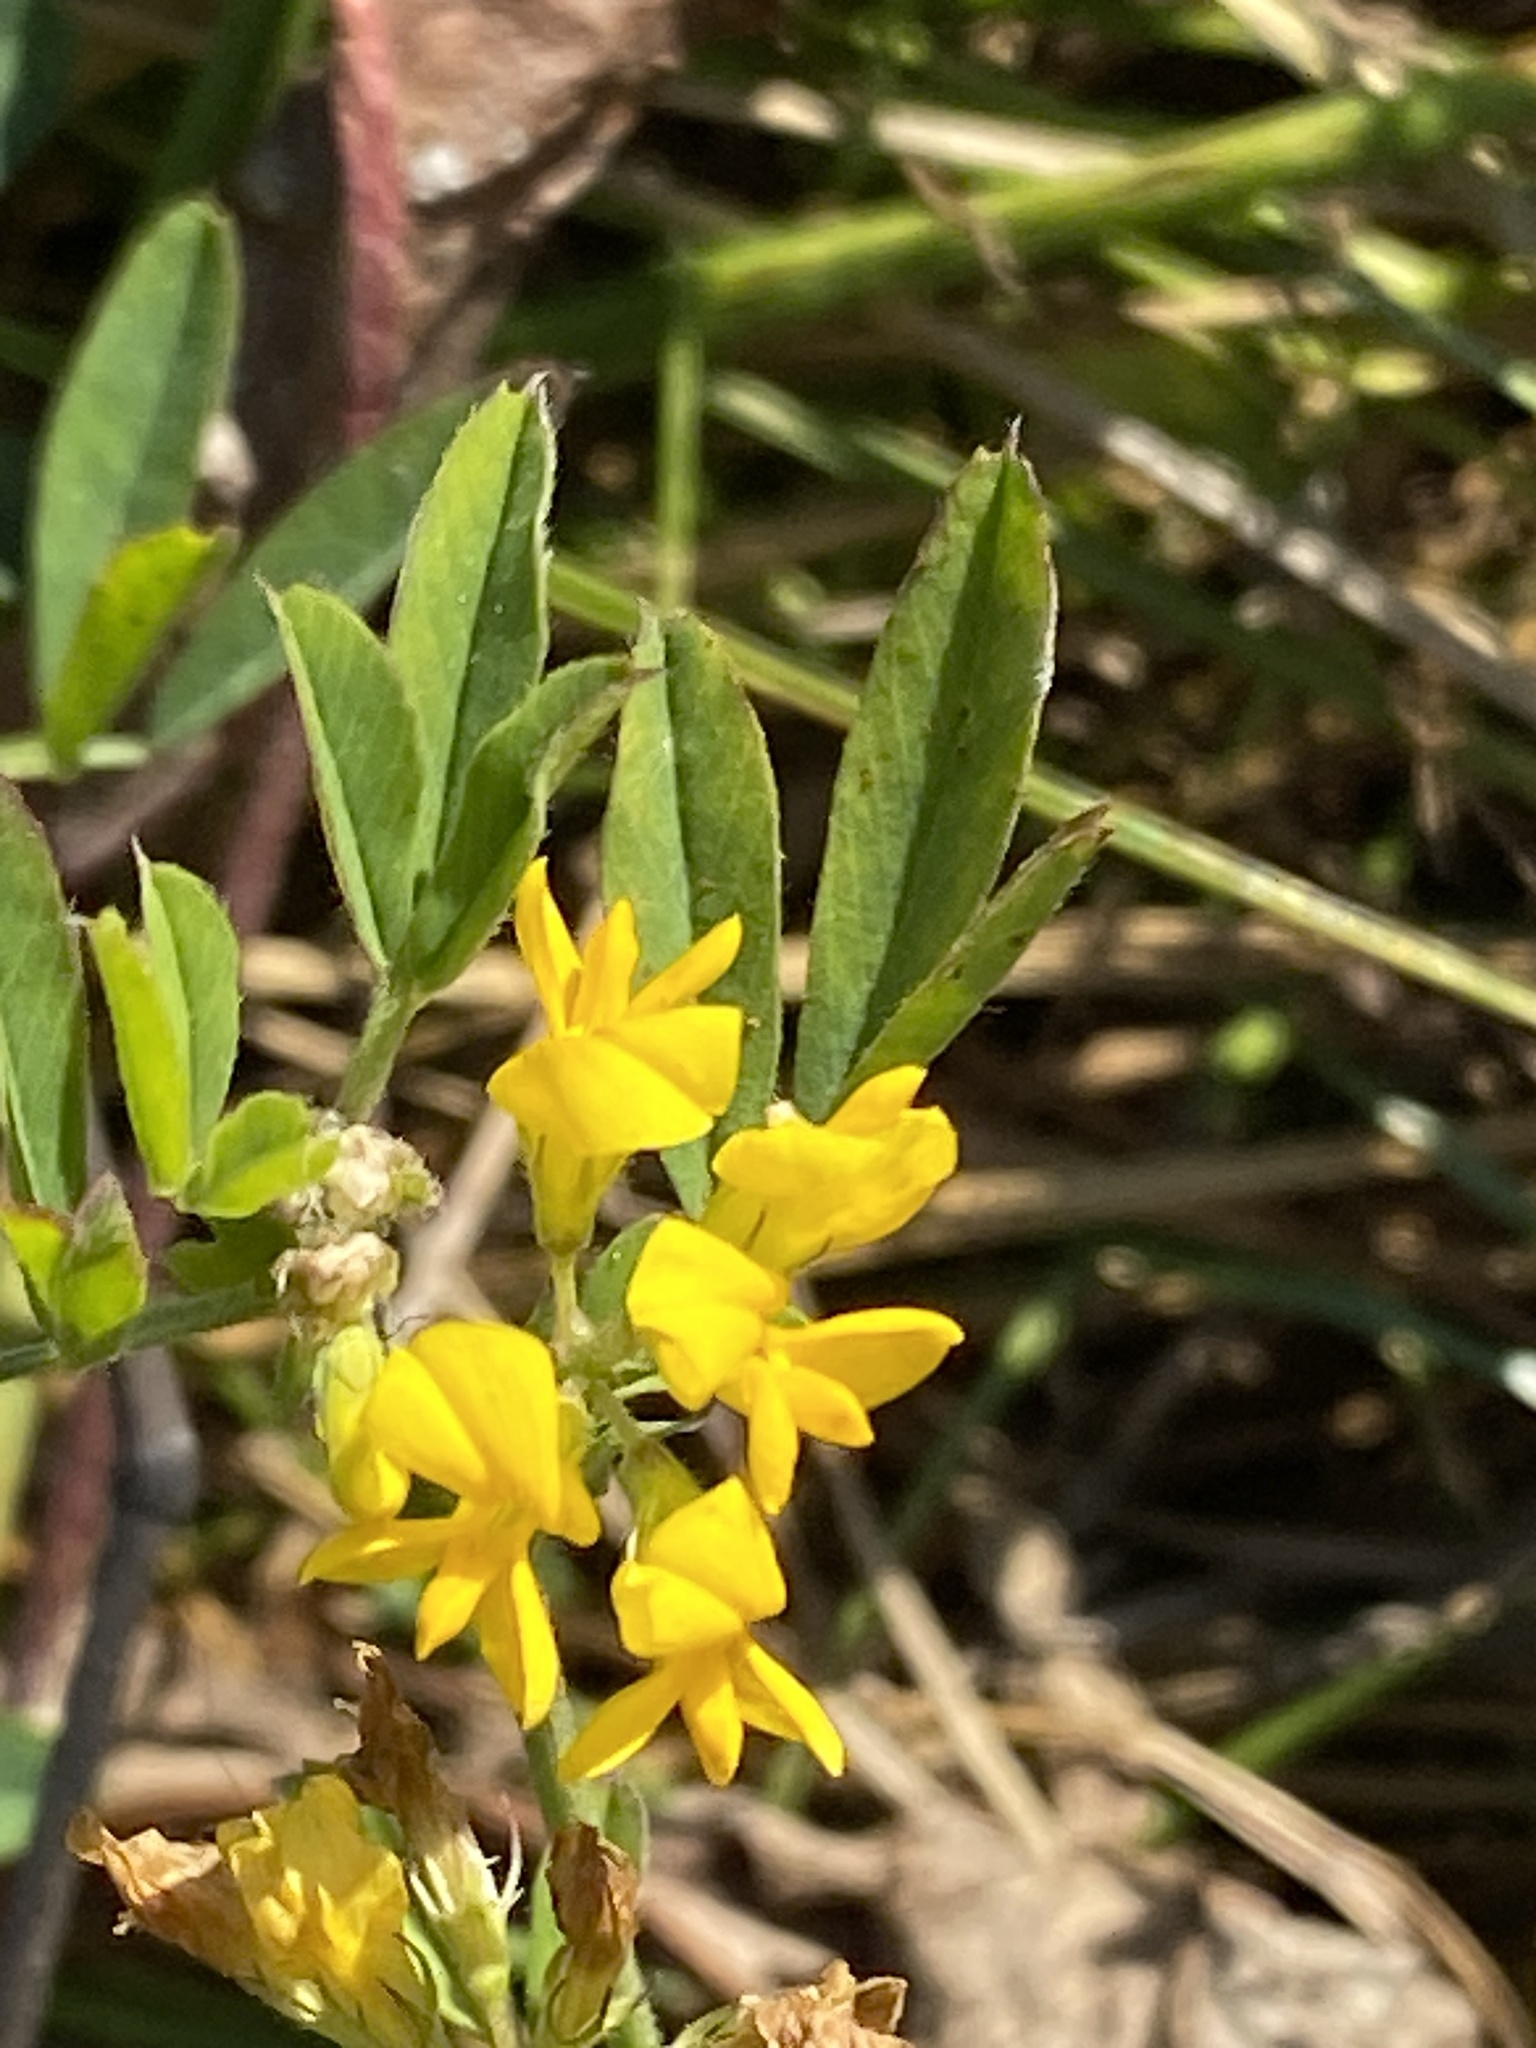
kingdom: Plantae
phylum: Tracheophyta
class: Magnoliopsida
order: Fabales
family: Fabaceae
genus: Medicago
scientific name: Medicago falcata
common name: Sickle medick
